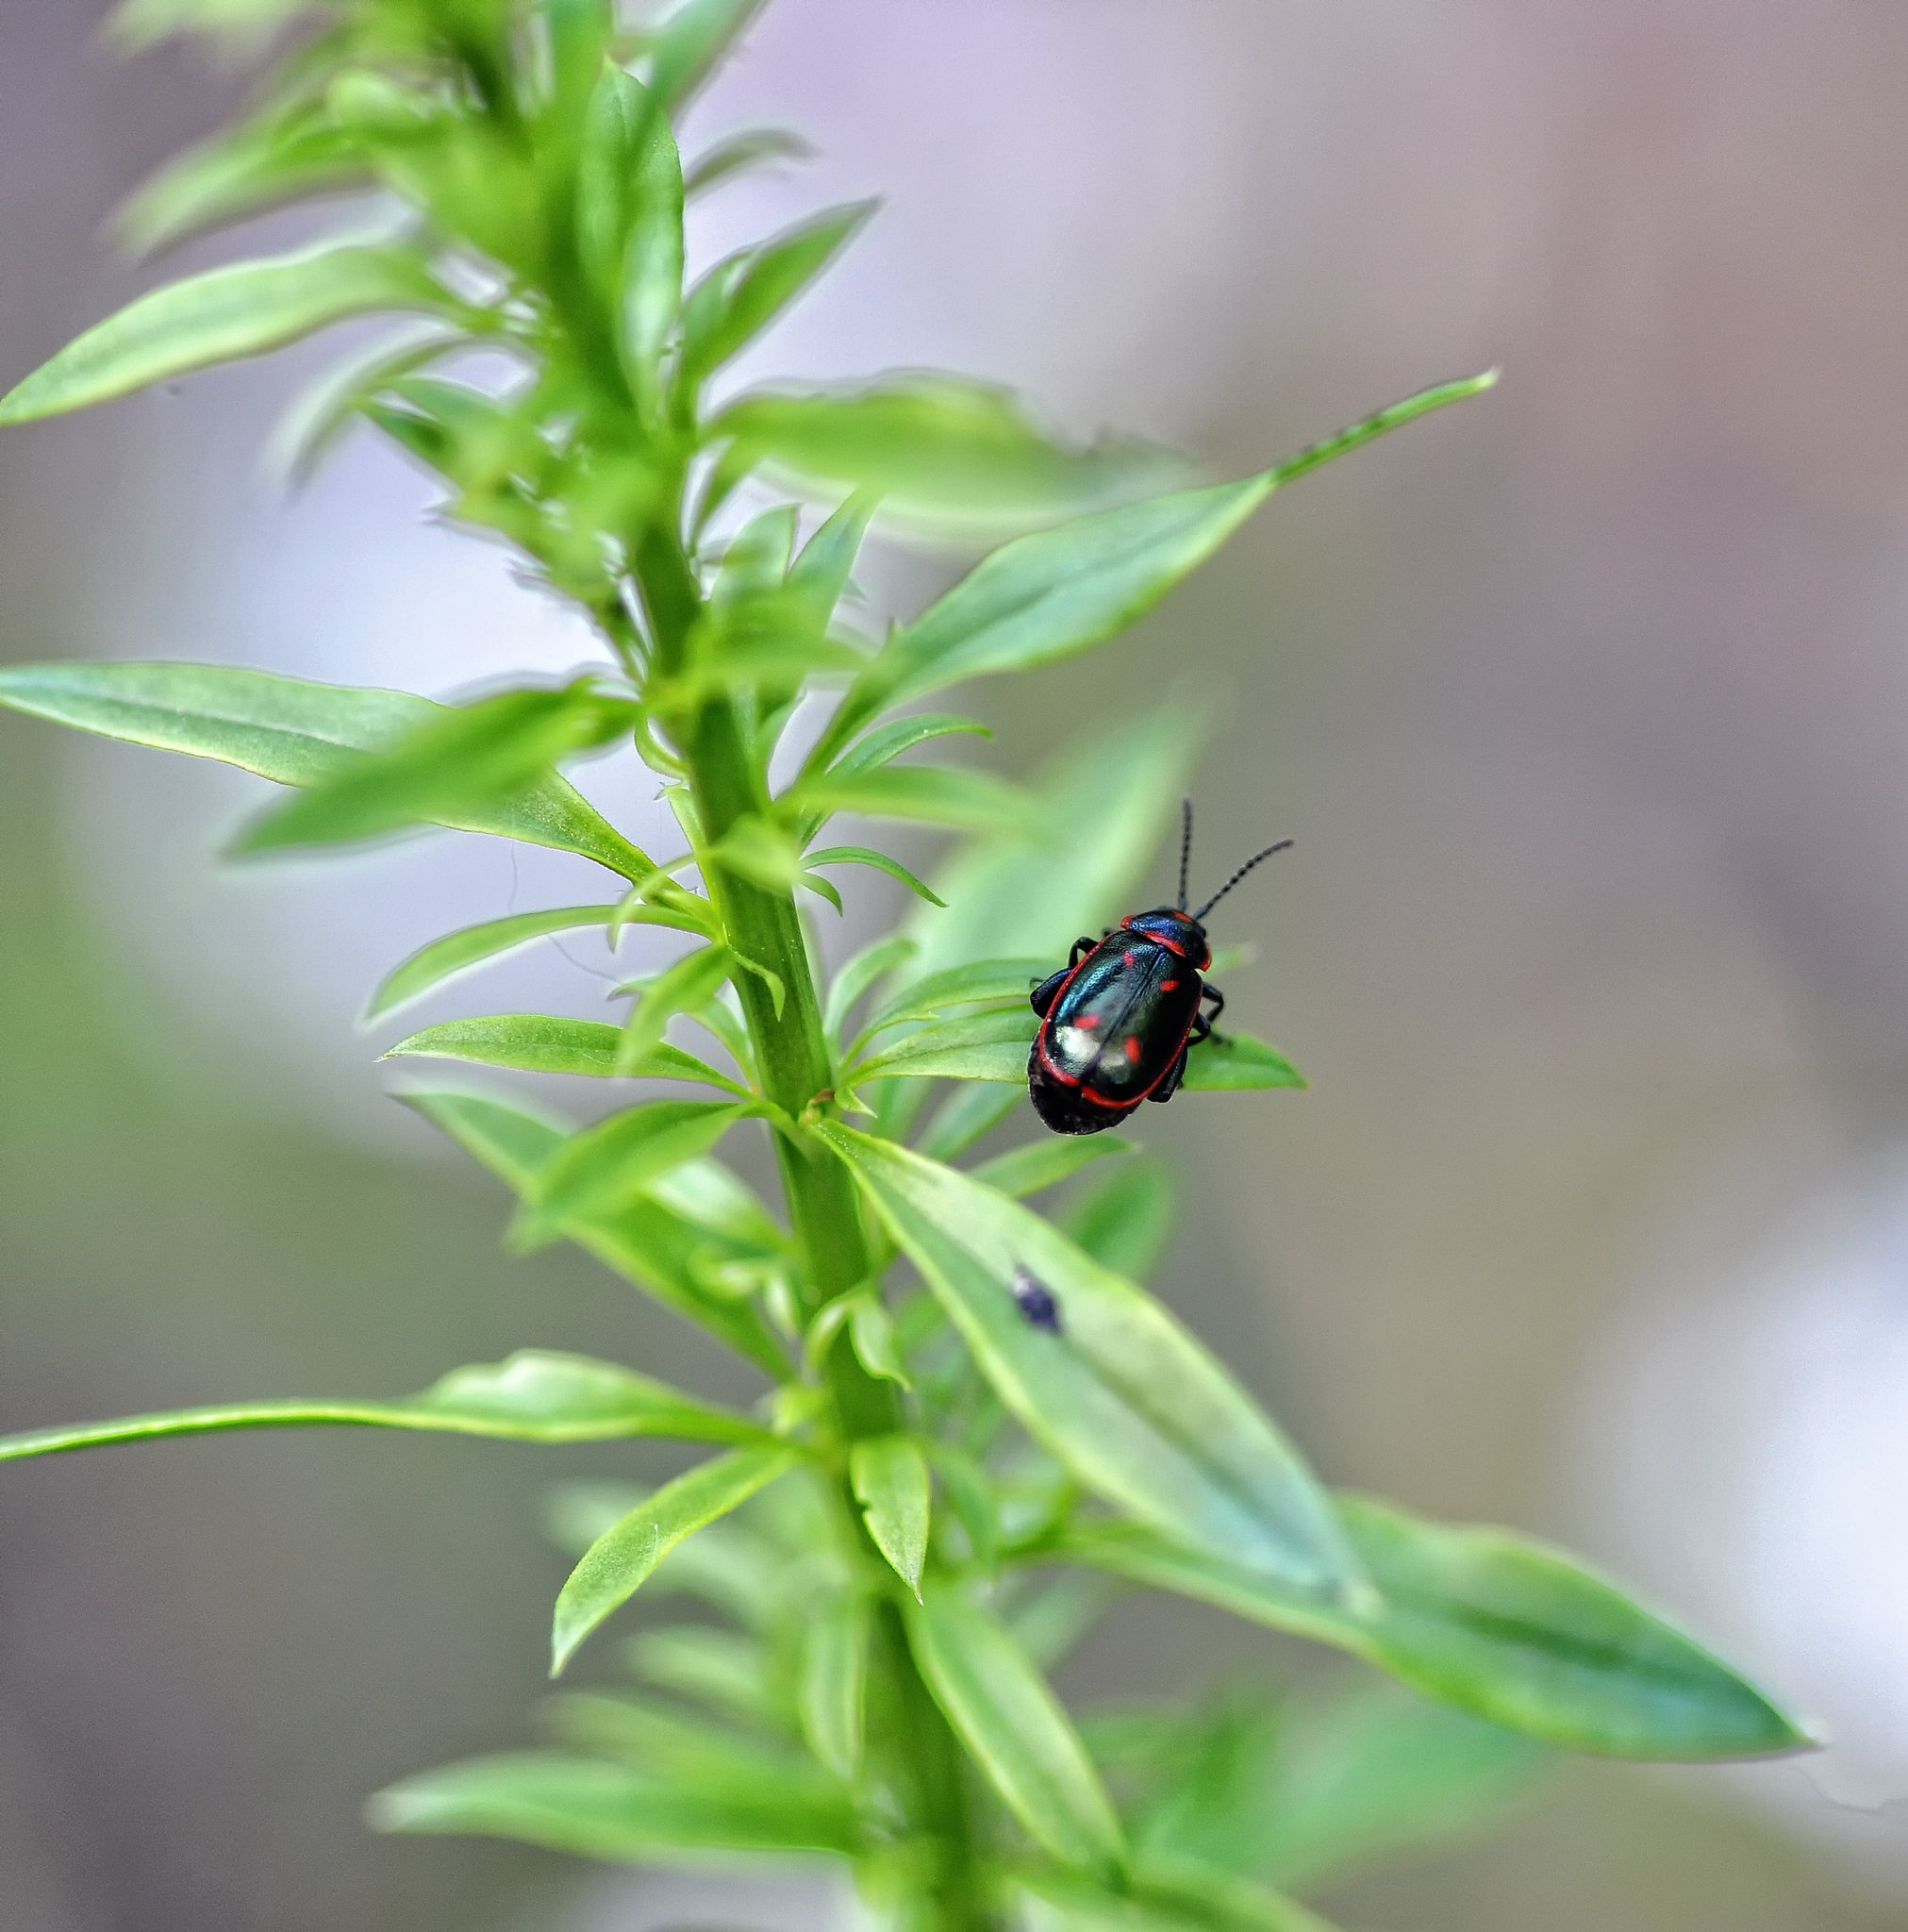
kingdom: Animalia
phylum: Arthropoda
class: Insecta
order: Coleoptera
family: Chrysomelidae
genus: Oedionychis
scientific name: Oedionychis cincta
